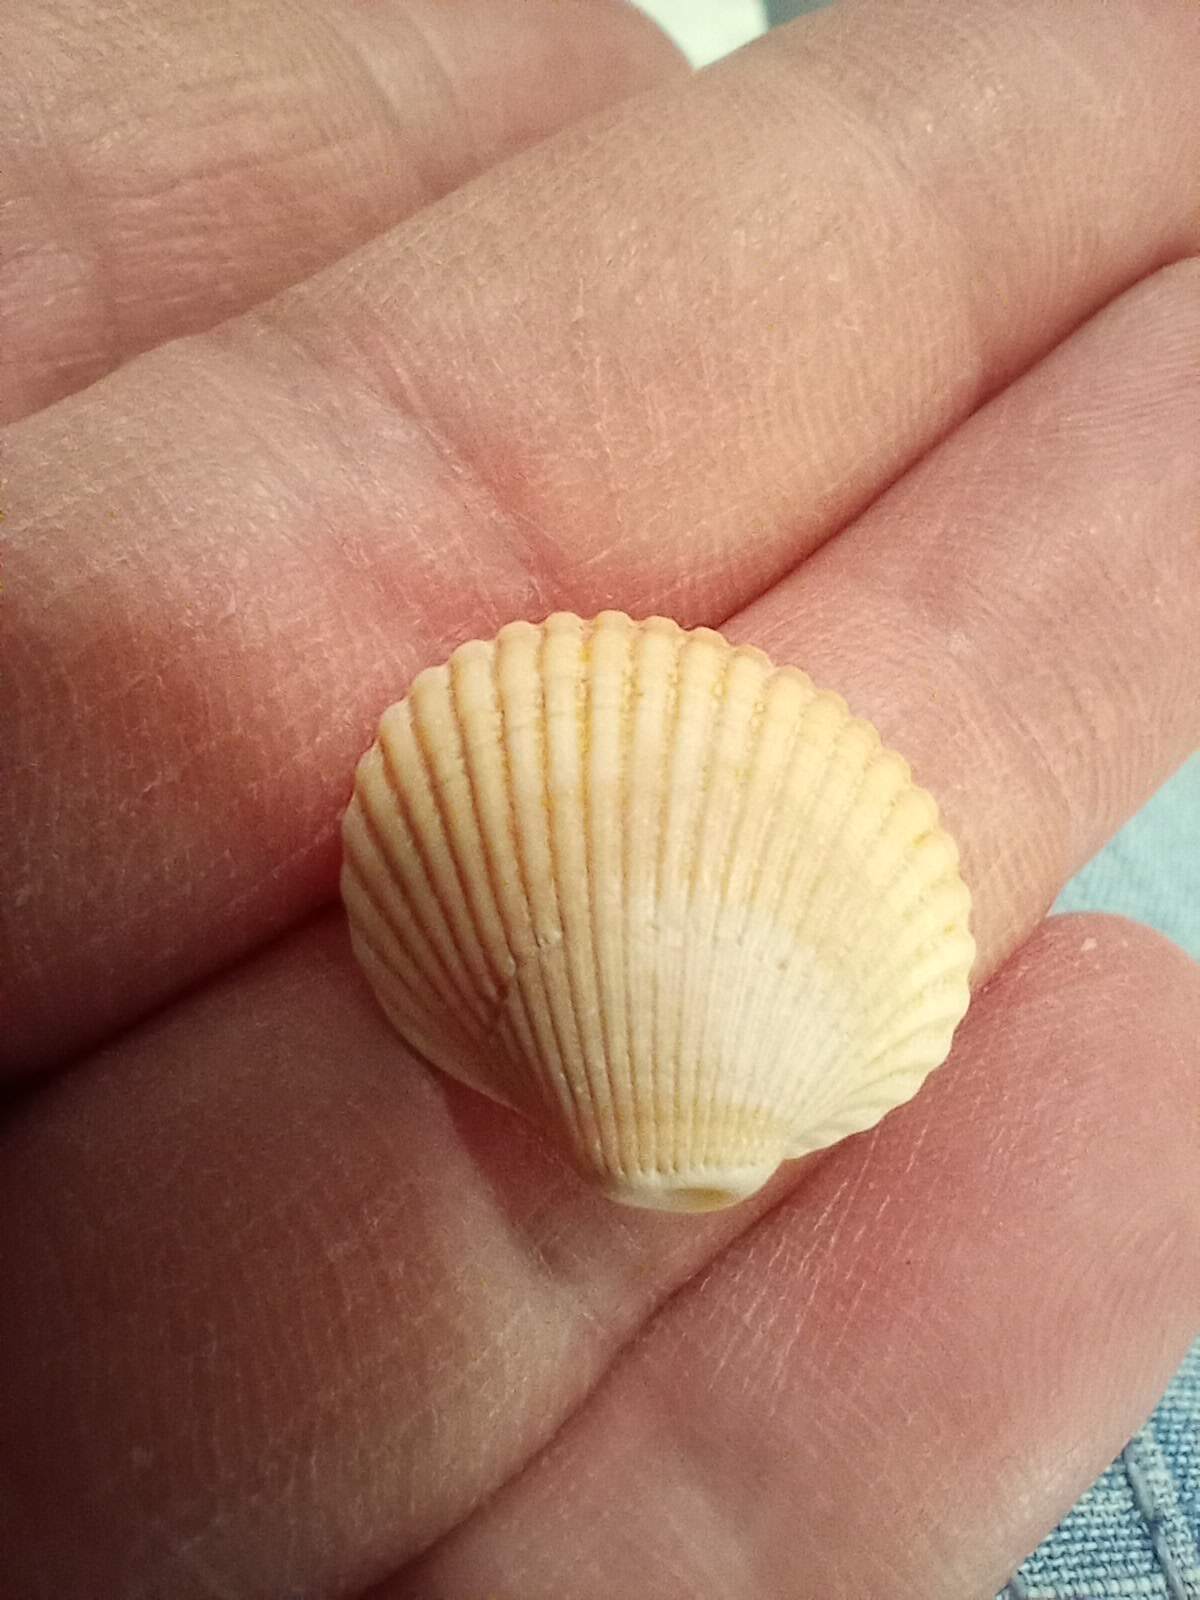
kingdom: Animalia
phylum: Mollusca
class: Bivalvia
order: Arcida
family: Arcidae
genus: Lunarca
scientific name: Lunarca ovalis
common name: Blood ark
